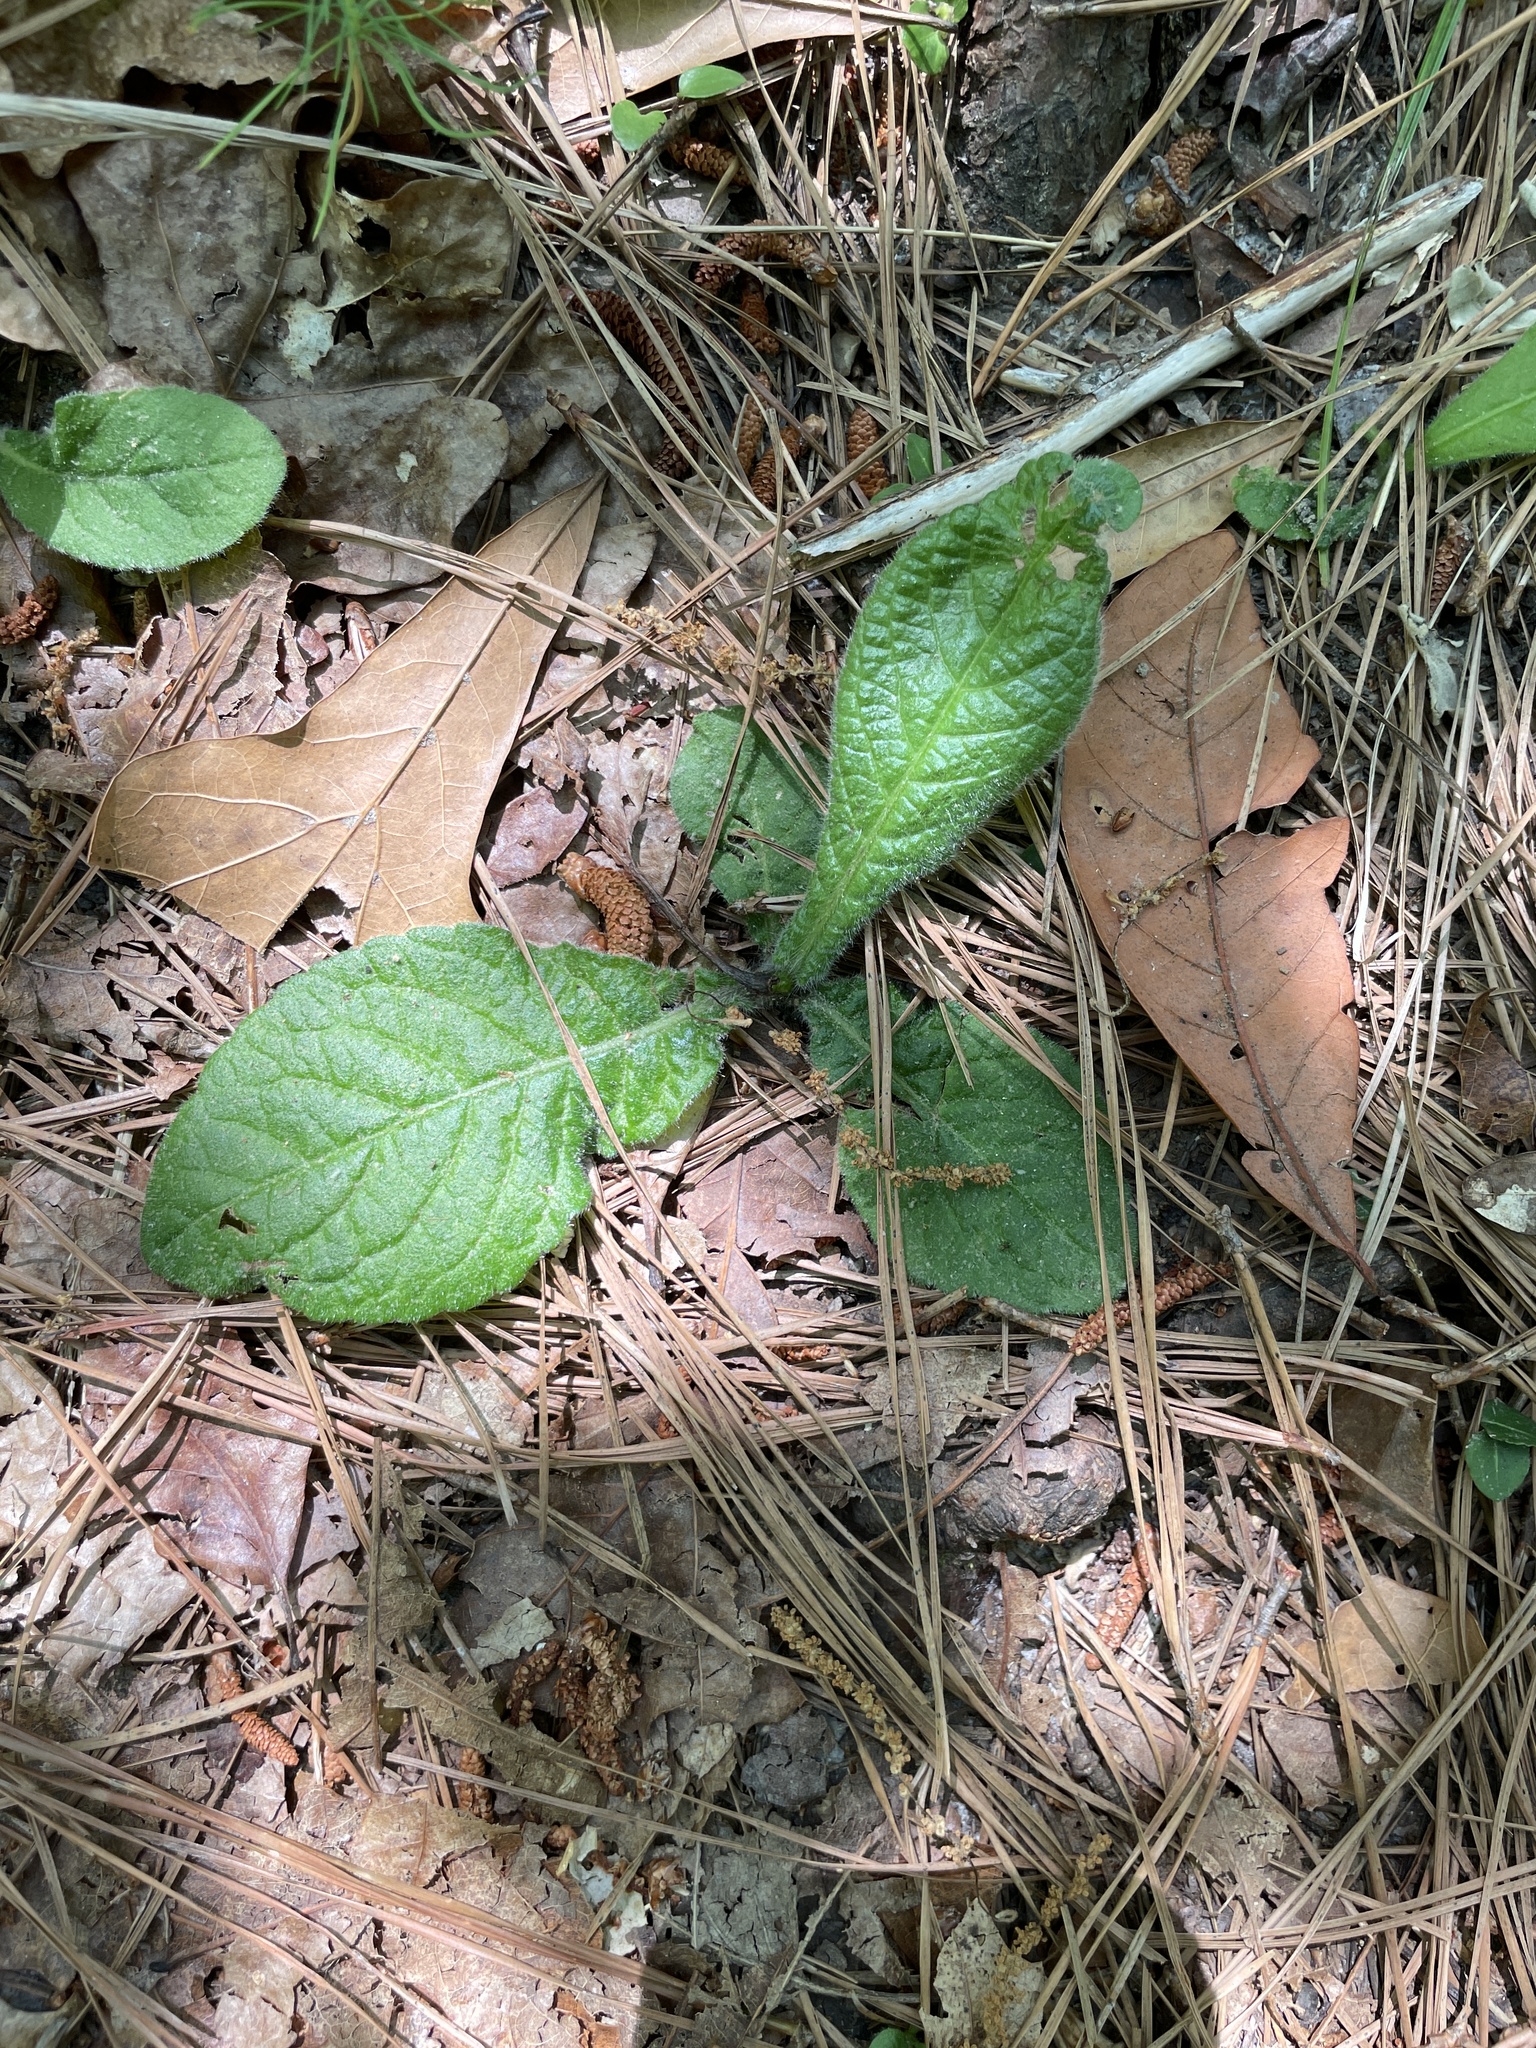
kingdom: Plantae
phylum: Tracheophyta
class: Magnoliopsida
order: Asterales
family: Asteraceae
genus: Elephantopus
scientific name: Elephantopus tomentosus
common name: Tobacco-weed
